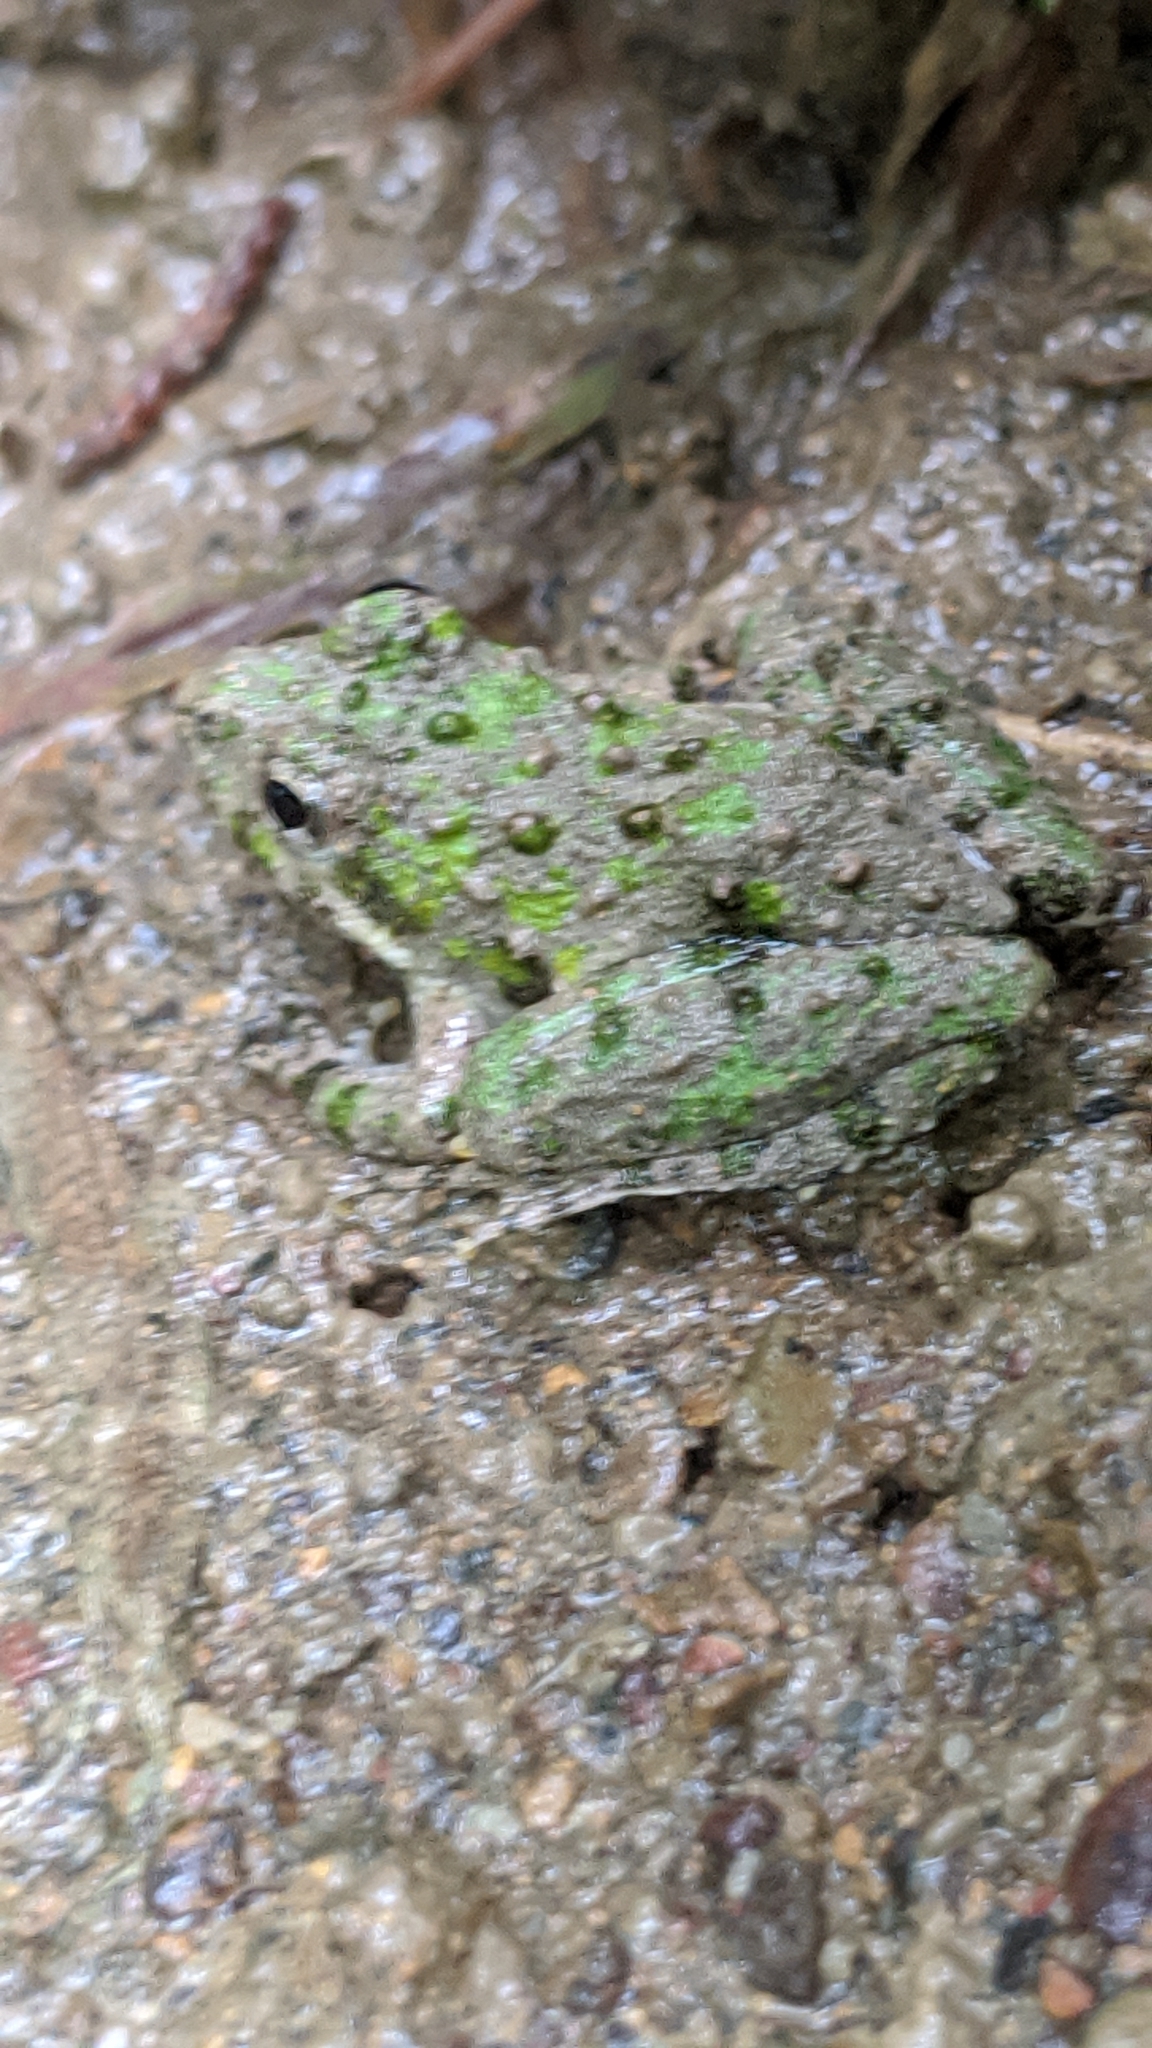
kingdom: Animalia
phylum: Chordata
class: Amphibia
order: Anura
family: Hylidae
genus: Acris
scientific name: Acris crepitans
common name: Northern cricket frog
